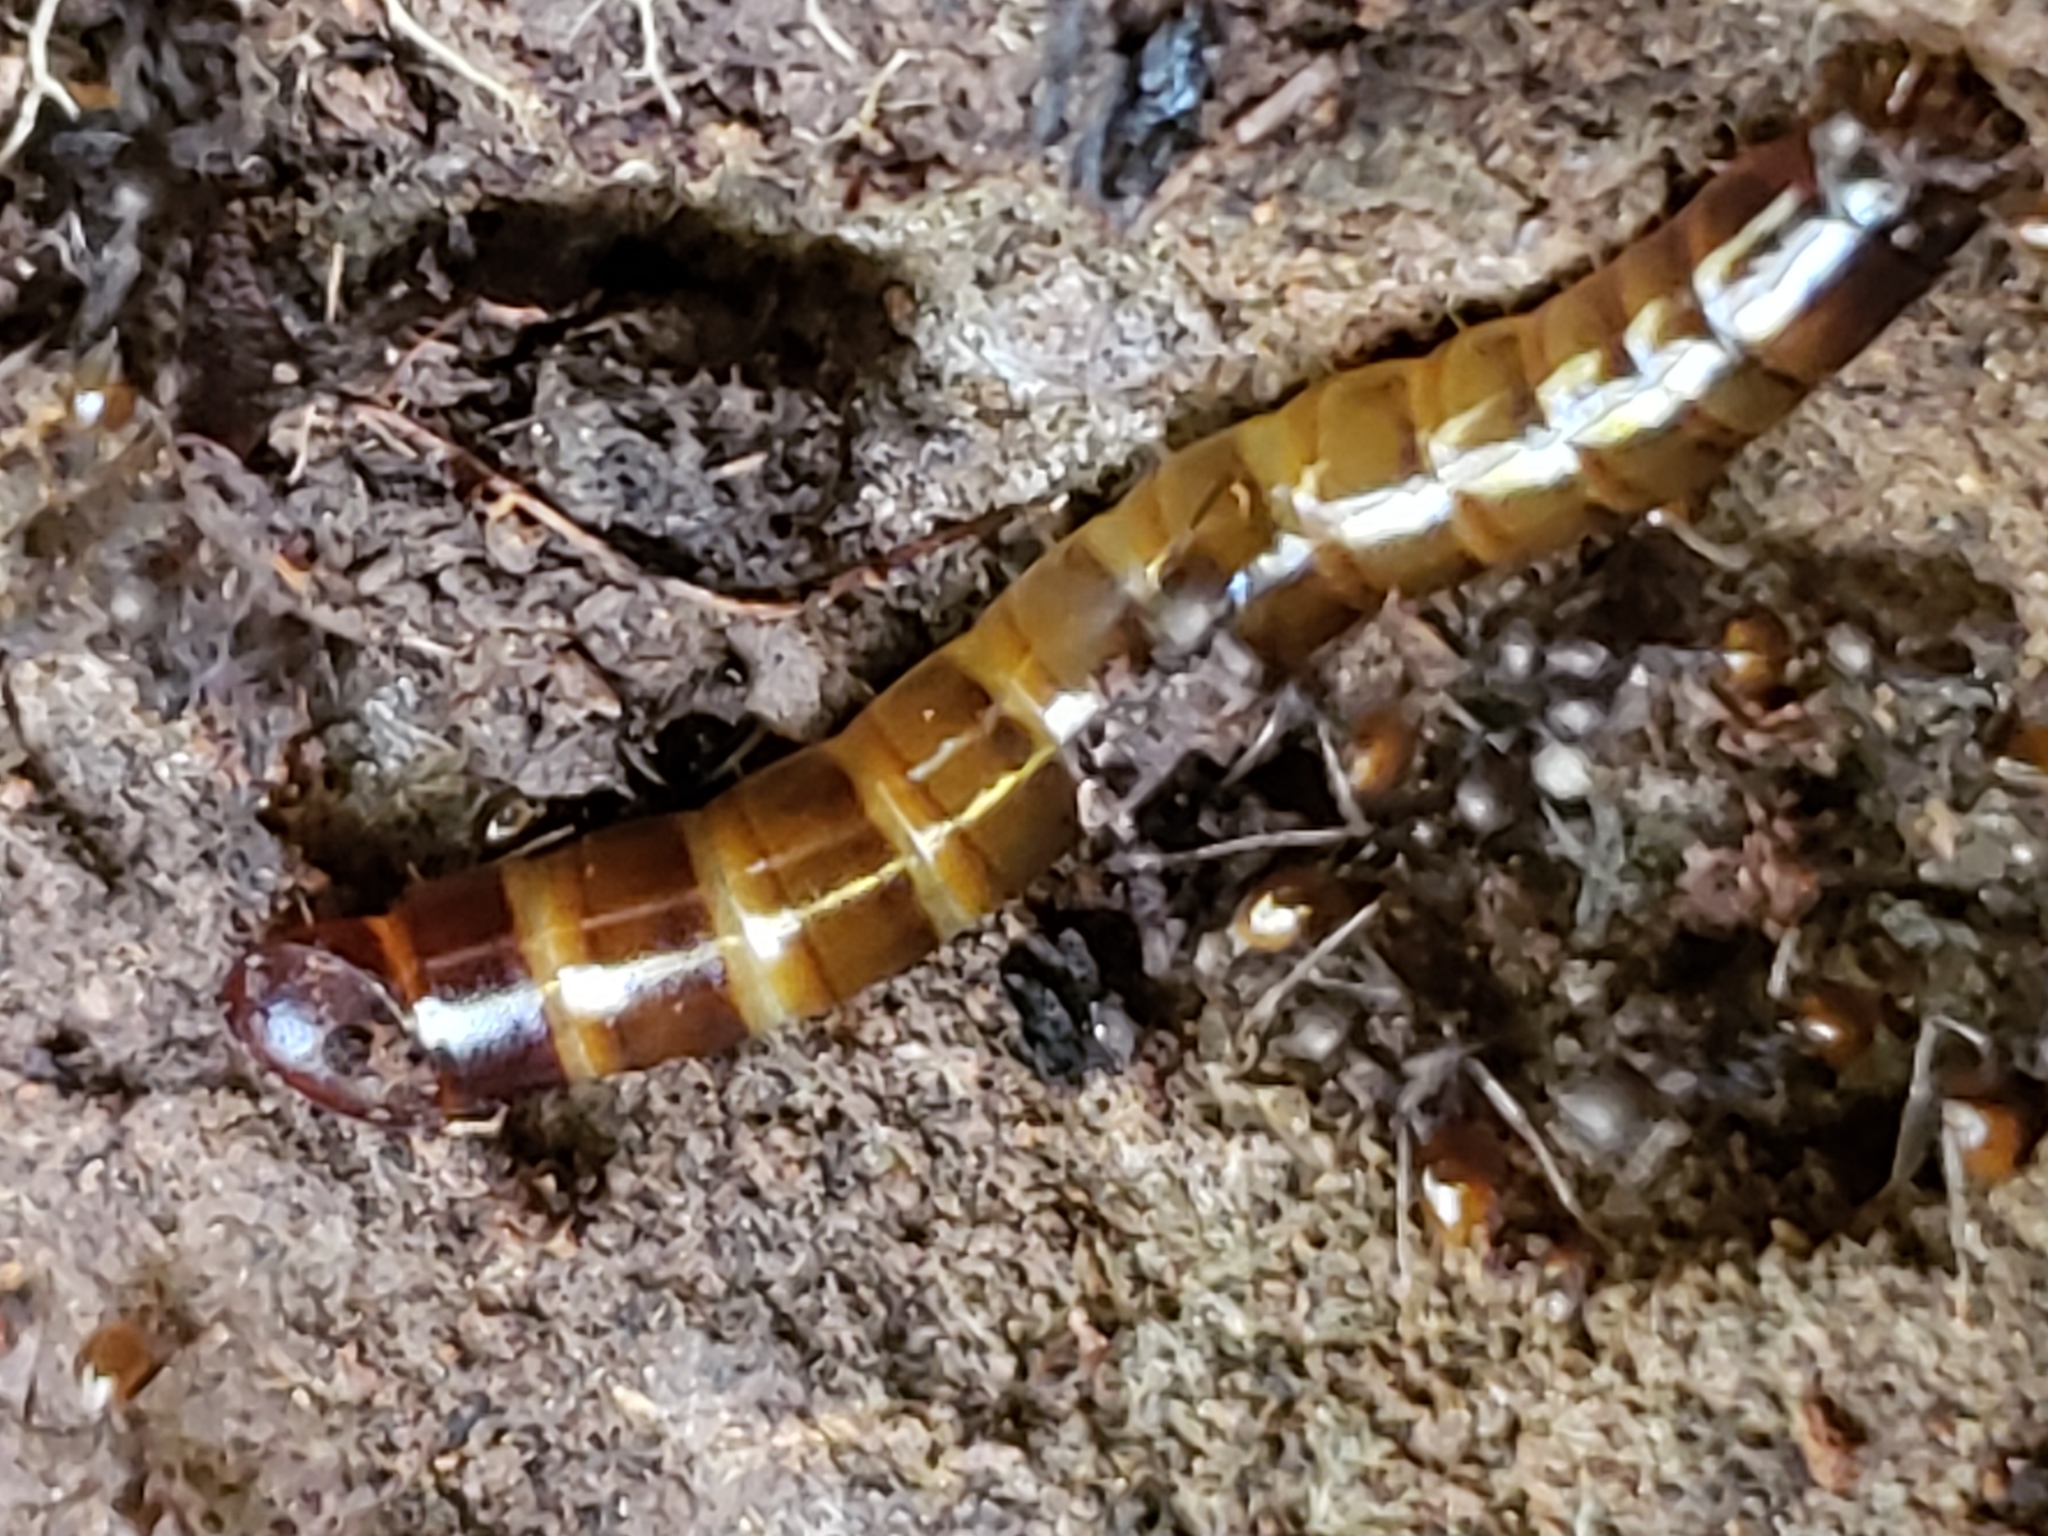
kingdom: Animalia
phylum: Arthropoda
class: Insecta
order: Coleoptera
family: Tenebrionidae
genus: Meracantha
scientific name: Meracantha contracta
